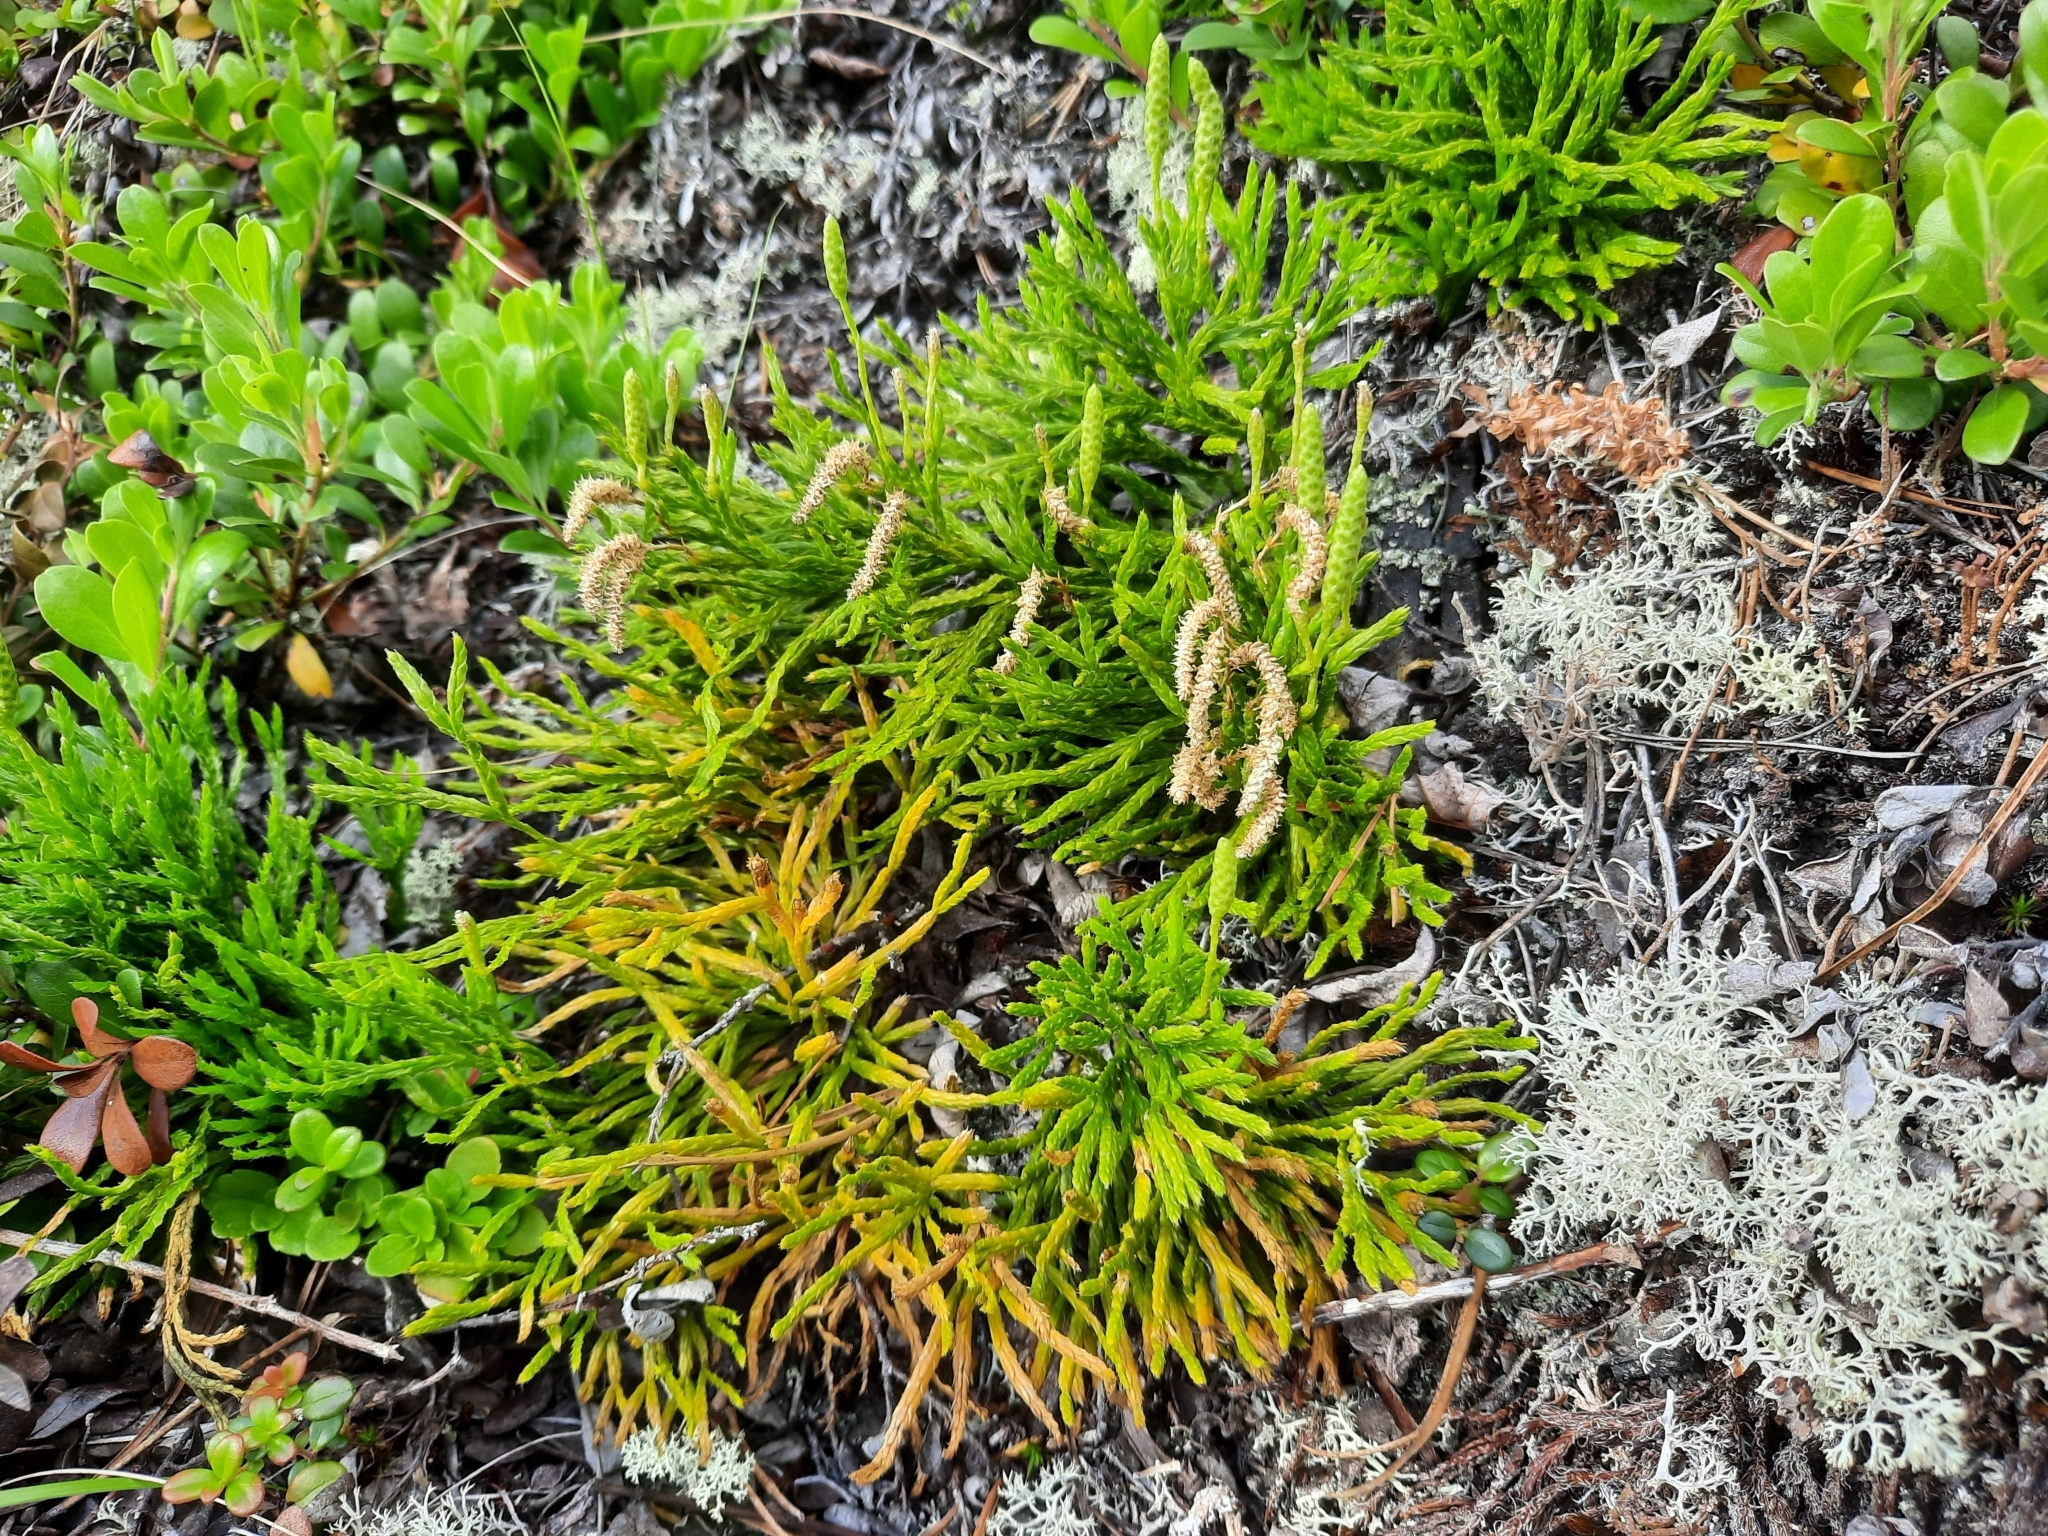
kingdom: Plantae
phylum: Tracheophyta
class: Lycopodiopsida
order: Lycopodiales
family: Lycopodiaceae
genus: Diphasiastrum
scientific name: Diphasiastrum complanatum
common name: Northern running-pine
